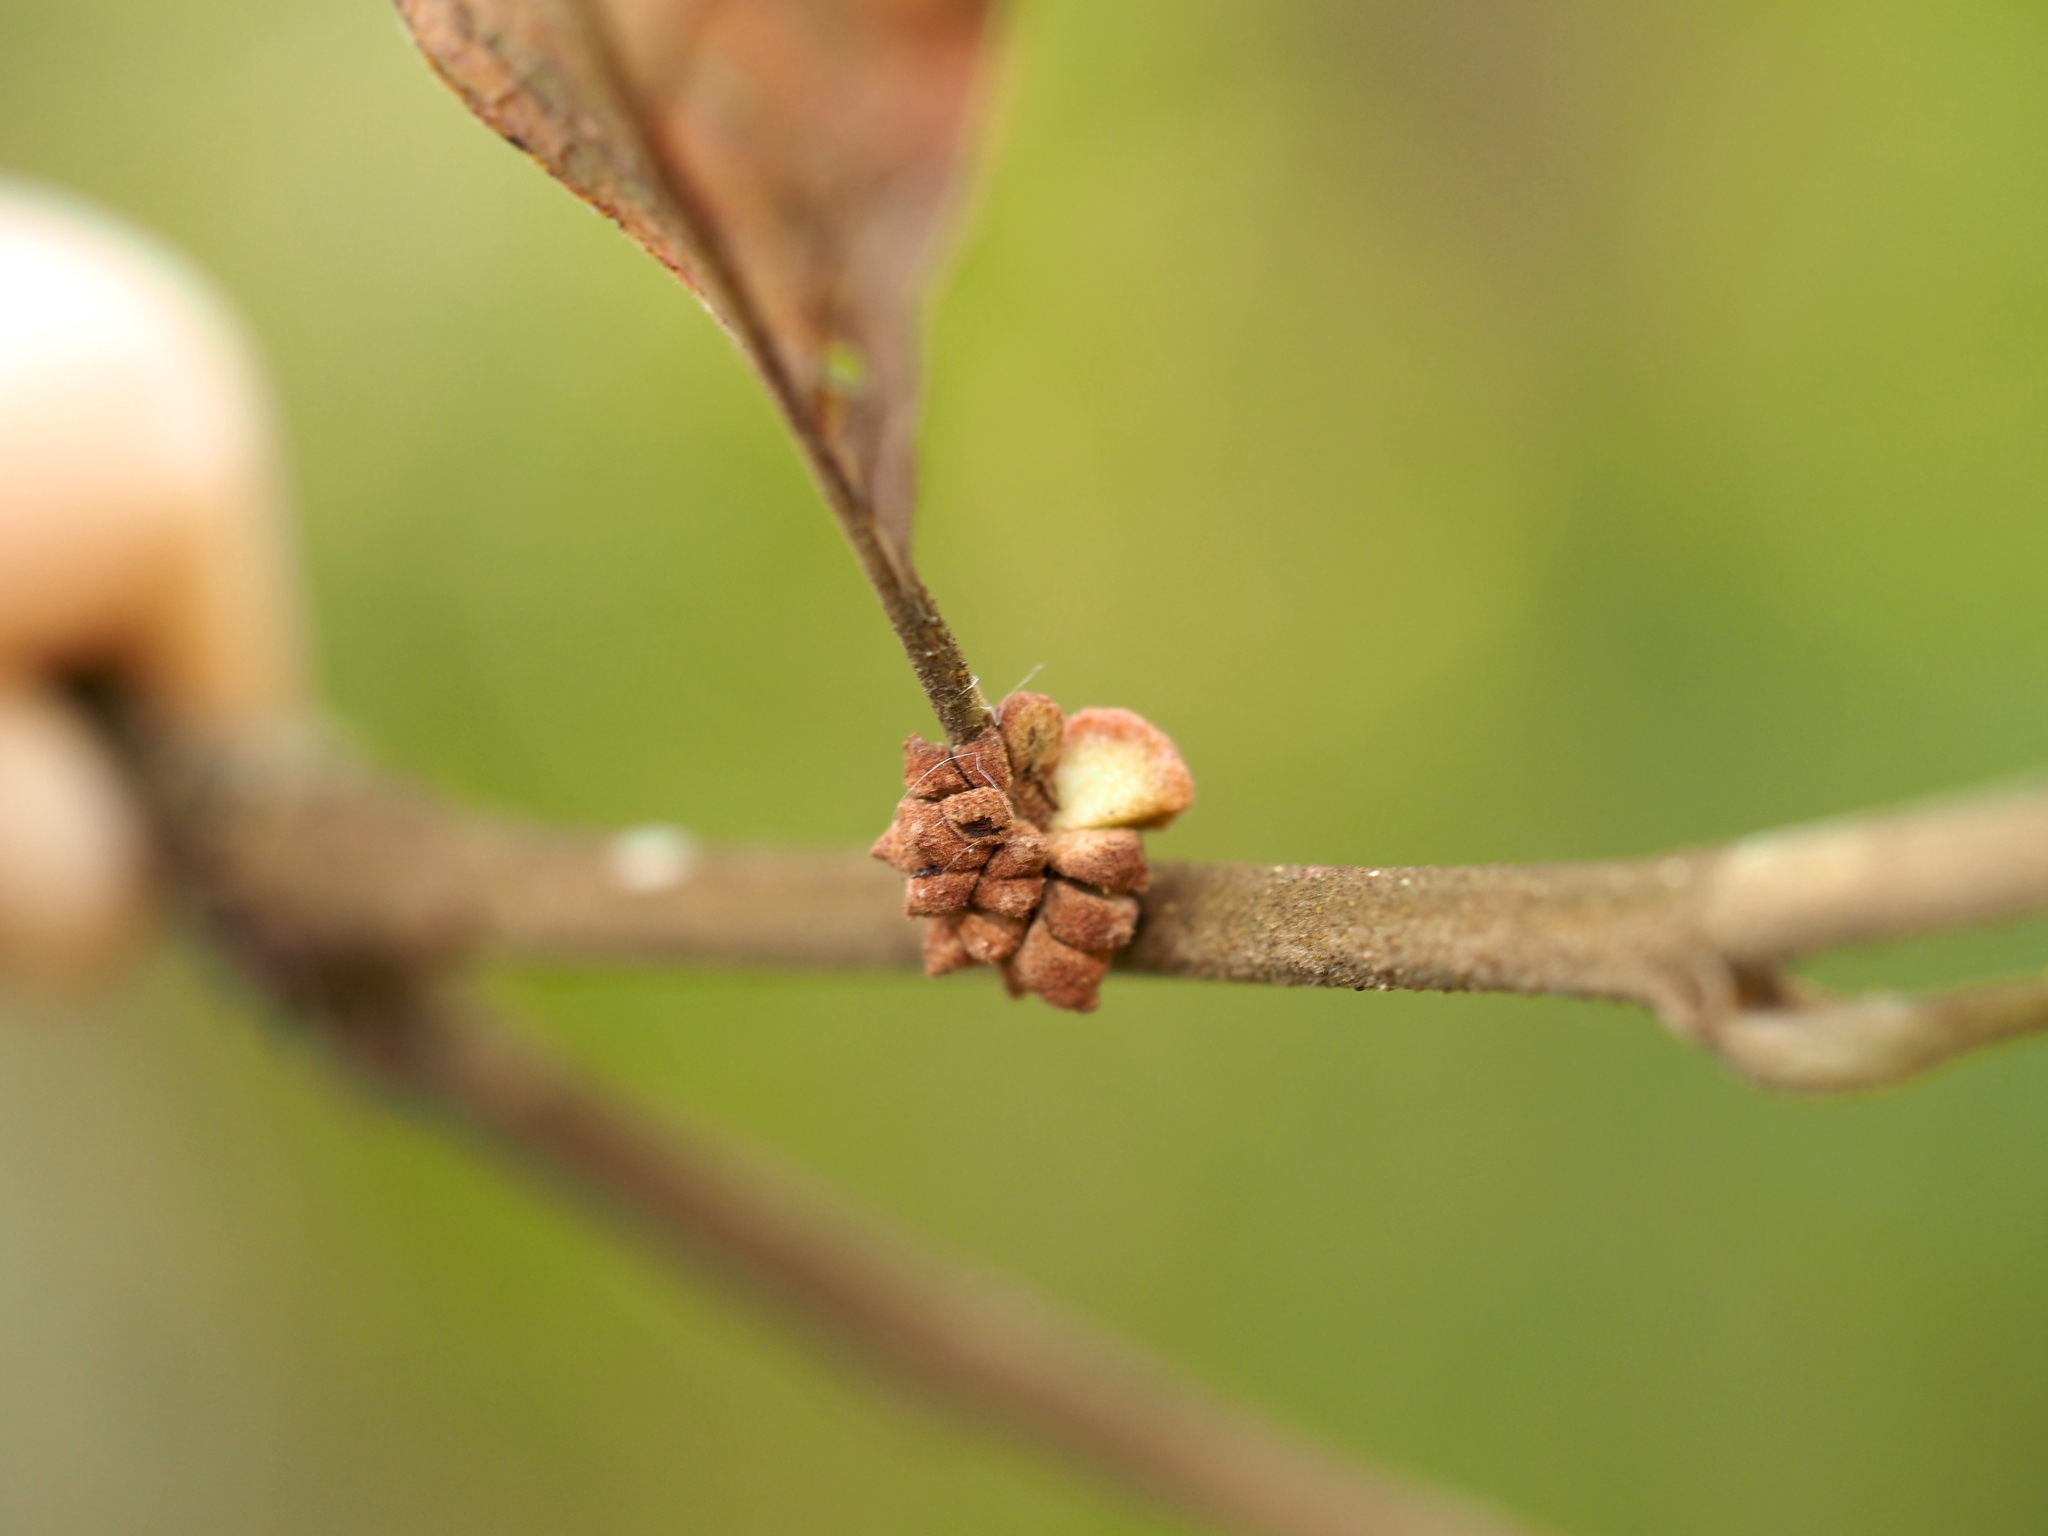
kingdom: Animalia
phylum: Arthropoda
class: Insecta
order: Hymenoptera
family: Cynipidae
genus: Andricus
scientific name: Andricus
